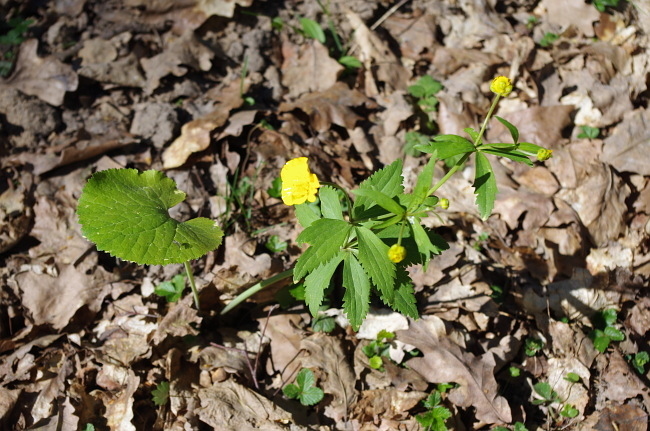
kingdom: Plantae
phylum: Tracheophyta
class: Magnoliopsida
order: Ranunculales
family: Ranunculaceae
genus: Ranunculus
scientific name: Ranunculus cassubicus
